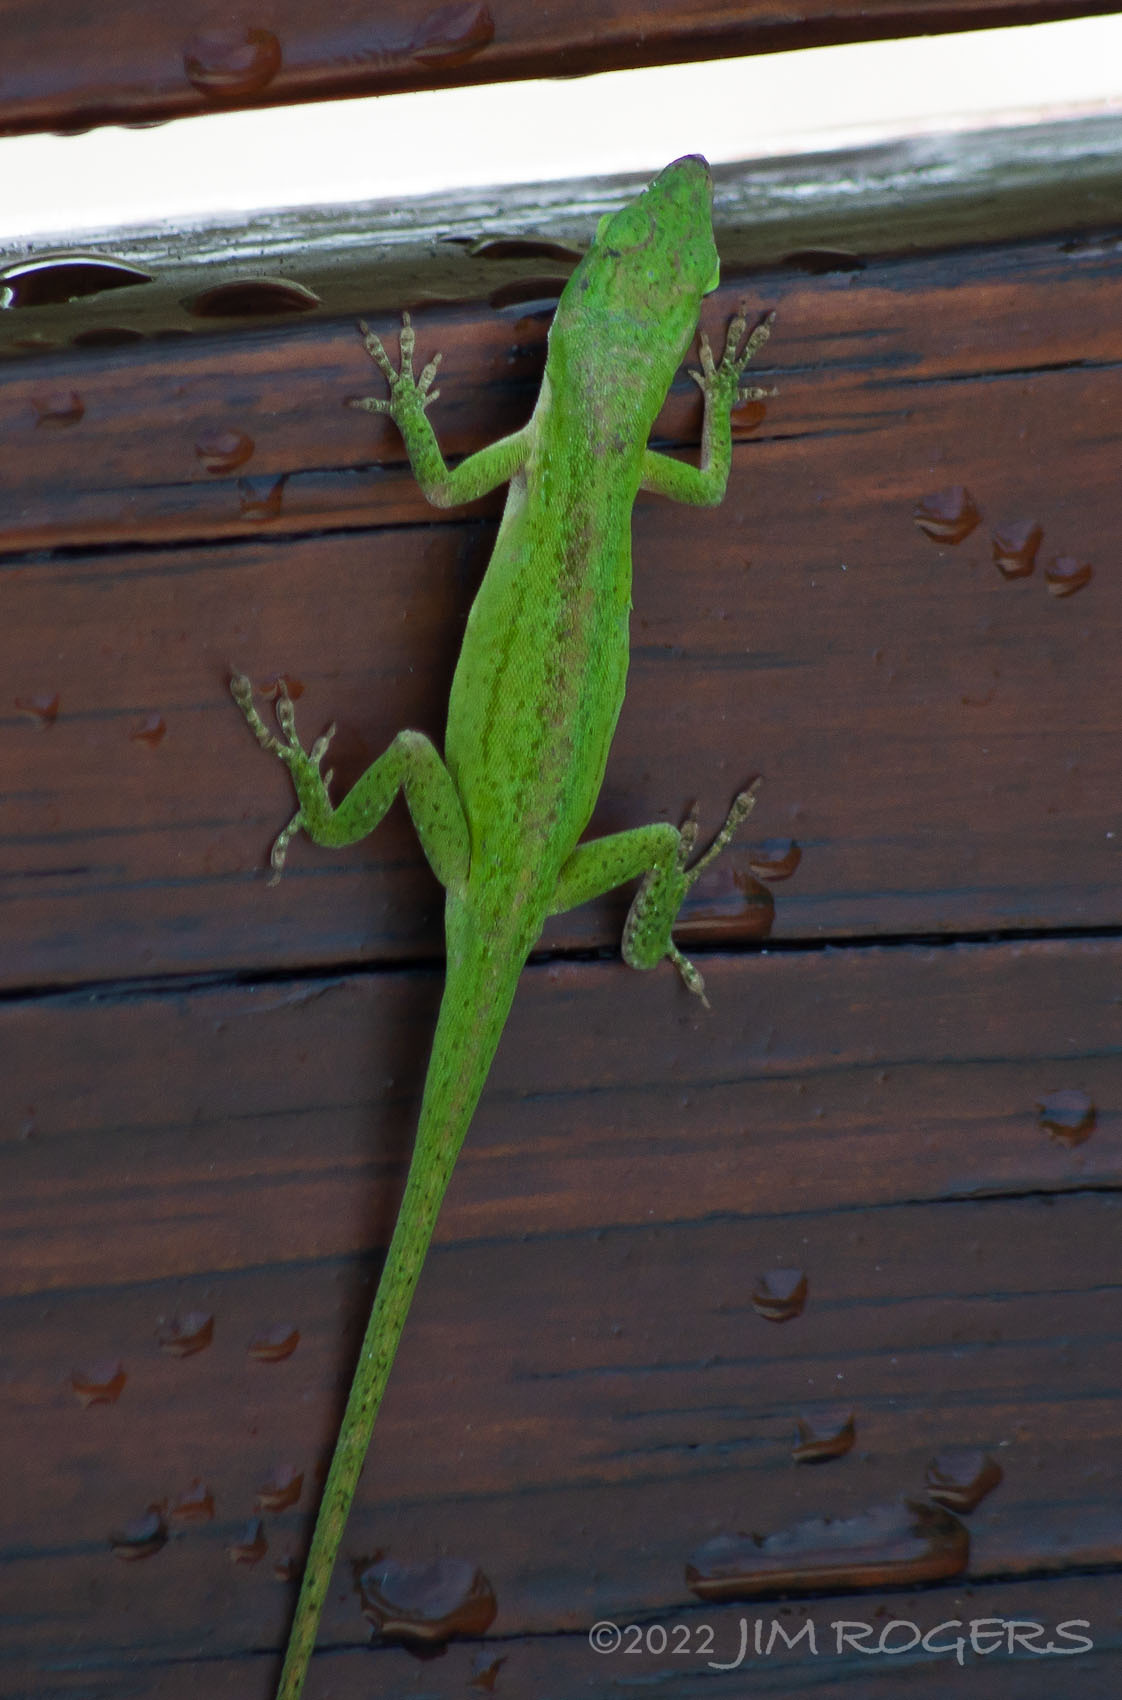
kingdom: Animalia
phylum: Chordata
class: Squamata
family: Dactyloidae
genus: Anolis
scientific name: Anolis carolinensis
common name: Green anole
